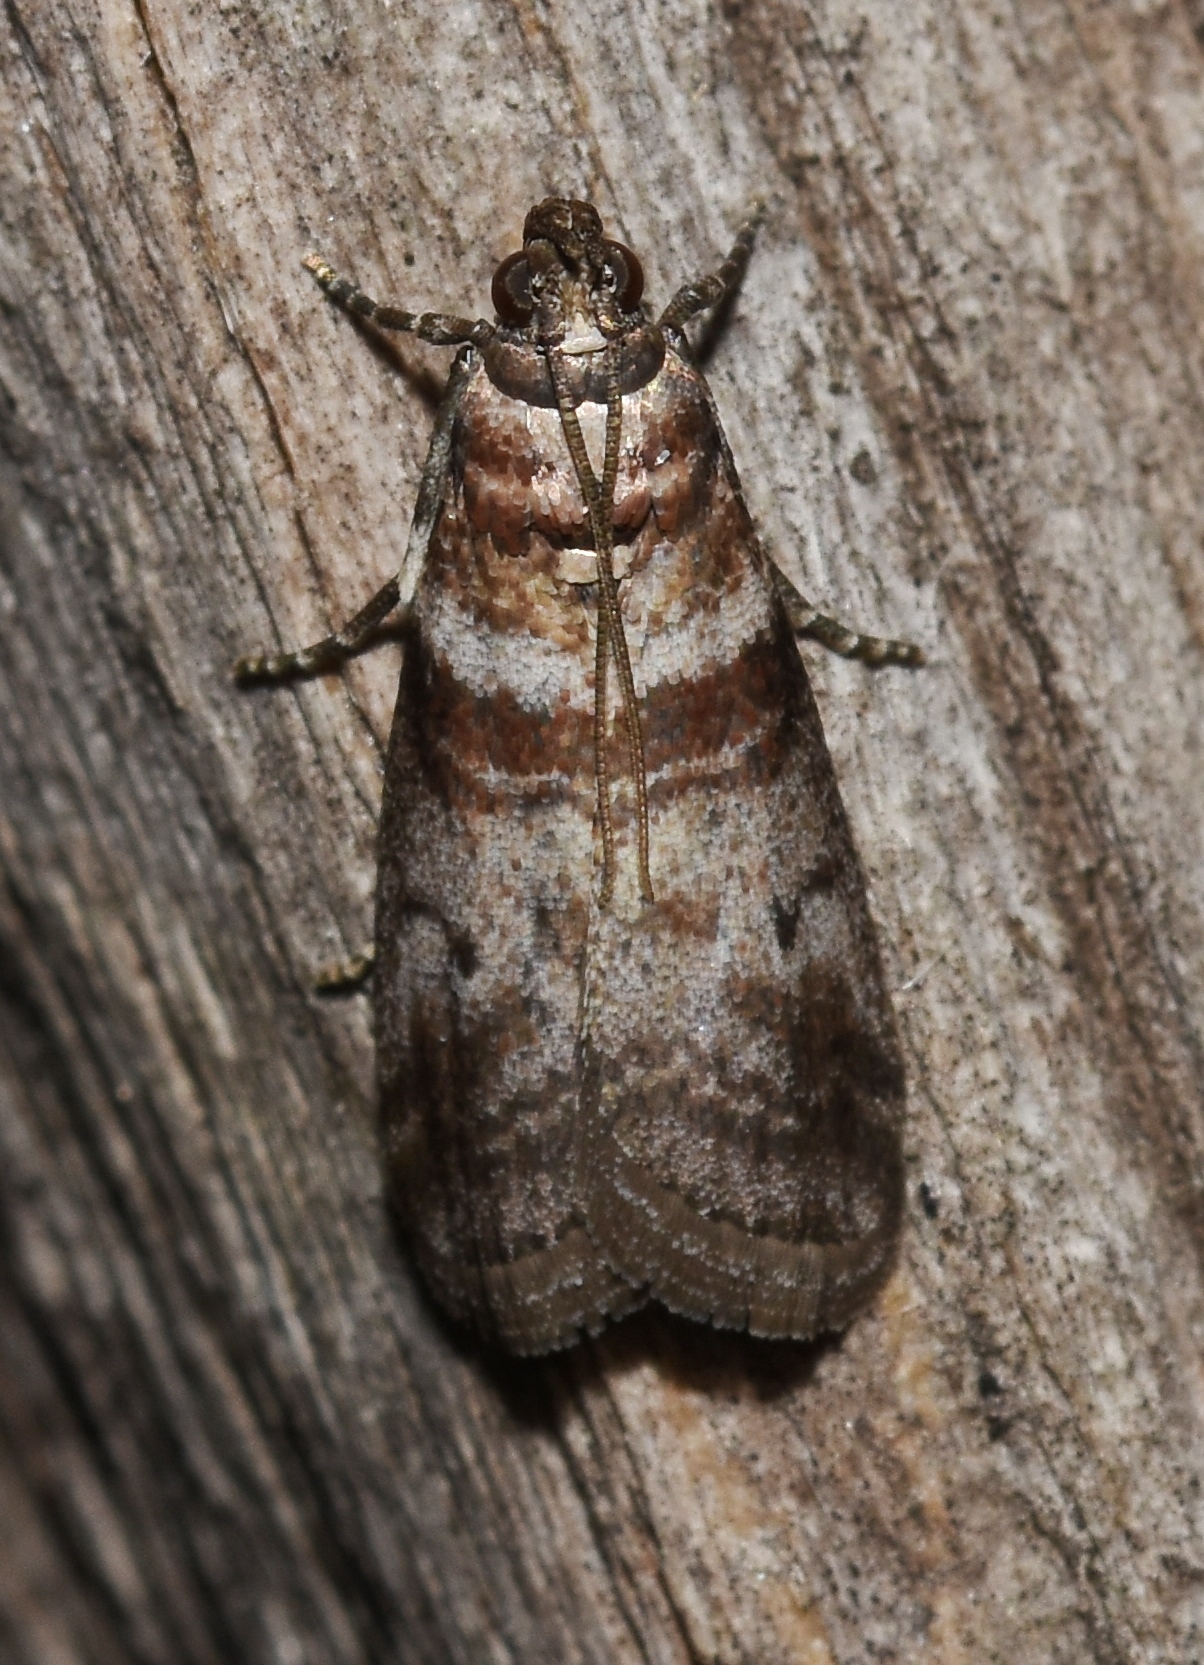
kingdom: Animalia
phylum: Arthropoda
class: Insecta
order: Lepidoptera
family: Pyralidae
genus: Sciota
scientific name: Sciota uvinella
